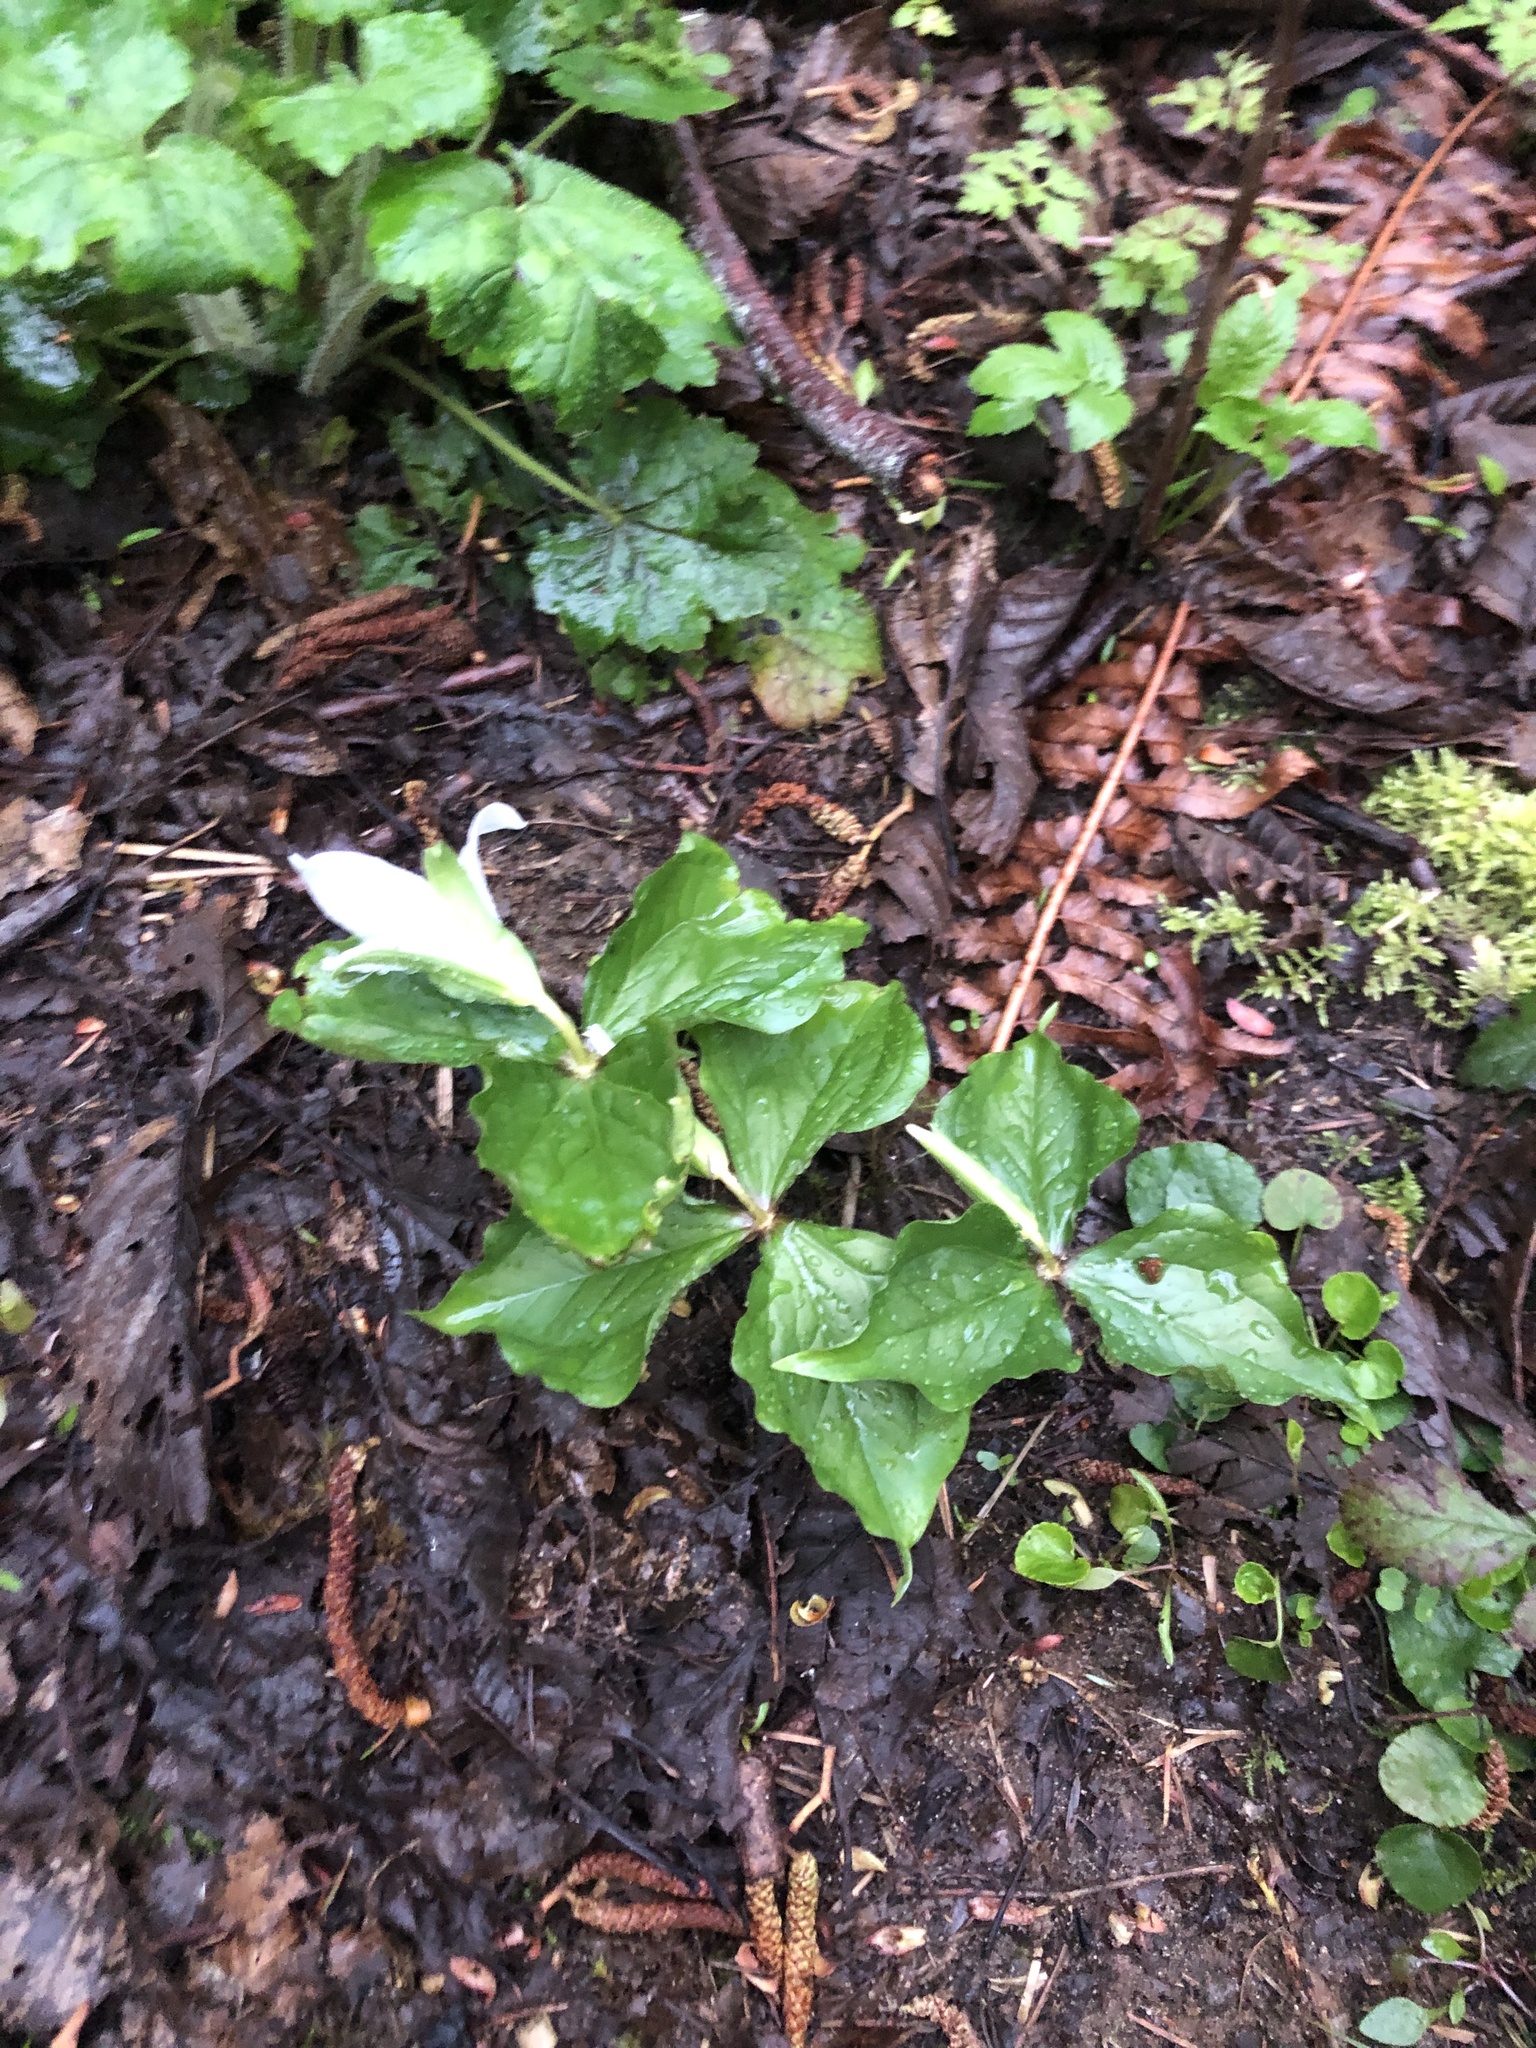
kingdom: Plantae
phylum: Tracheophyta
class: Liliopsida
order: Liliales
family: Melanthiaceae
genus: Trillium
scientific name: Trillium ovatum
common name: Pacific trillium
